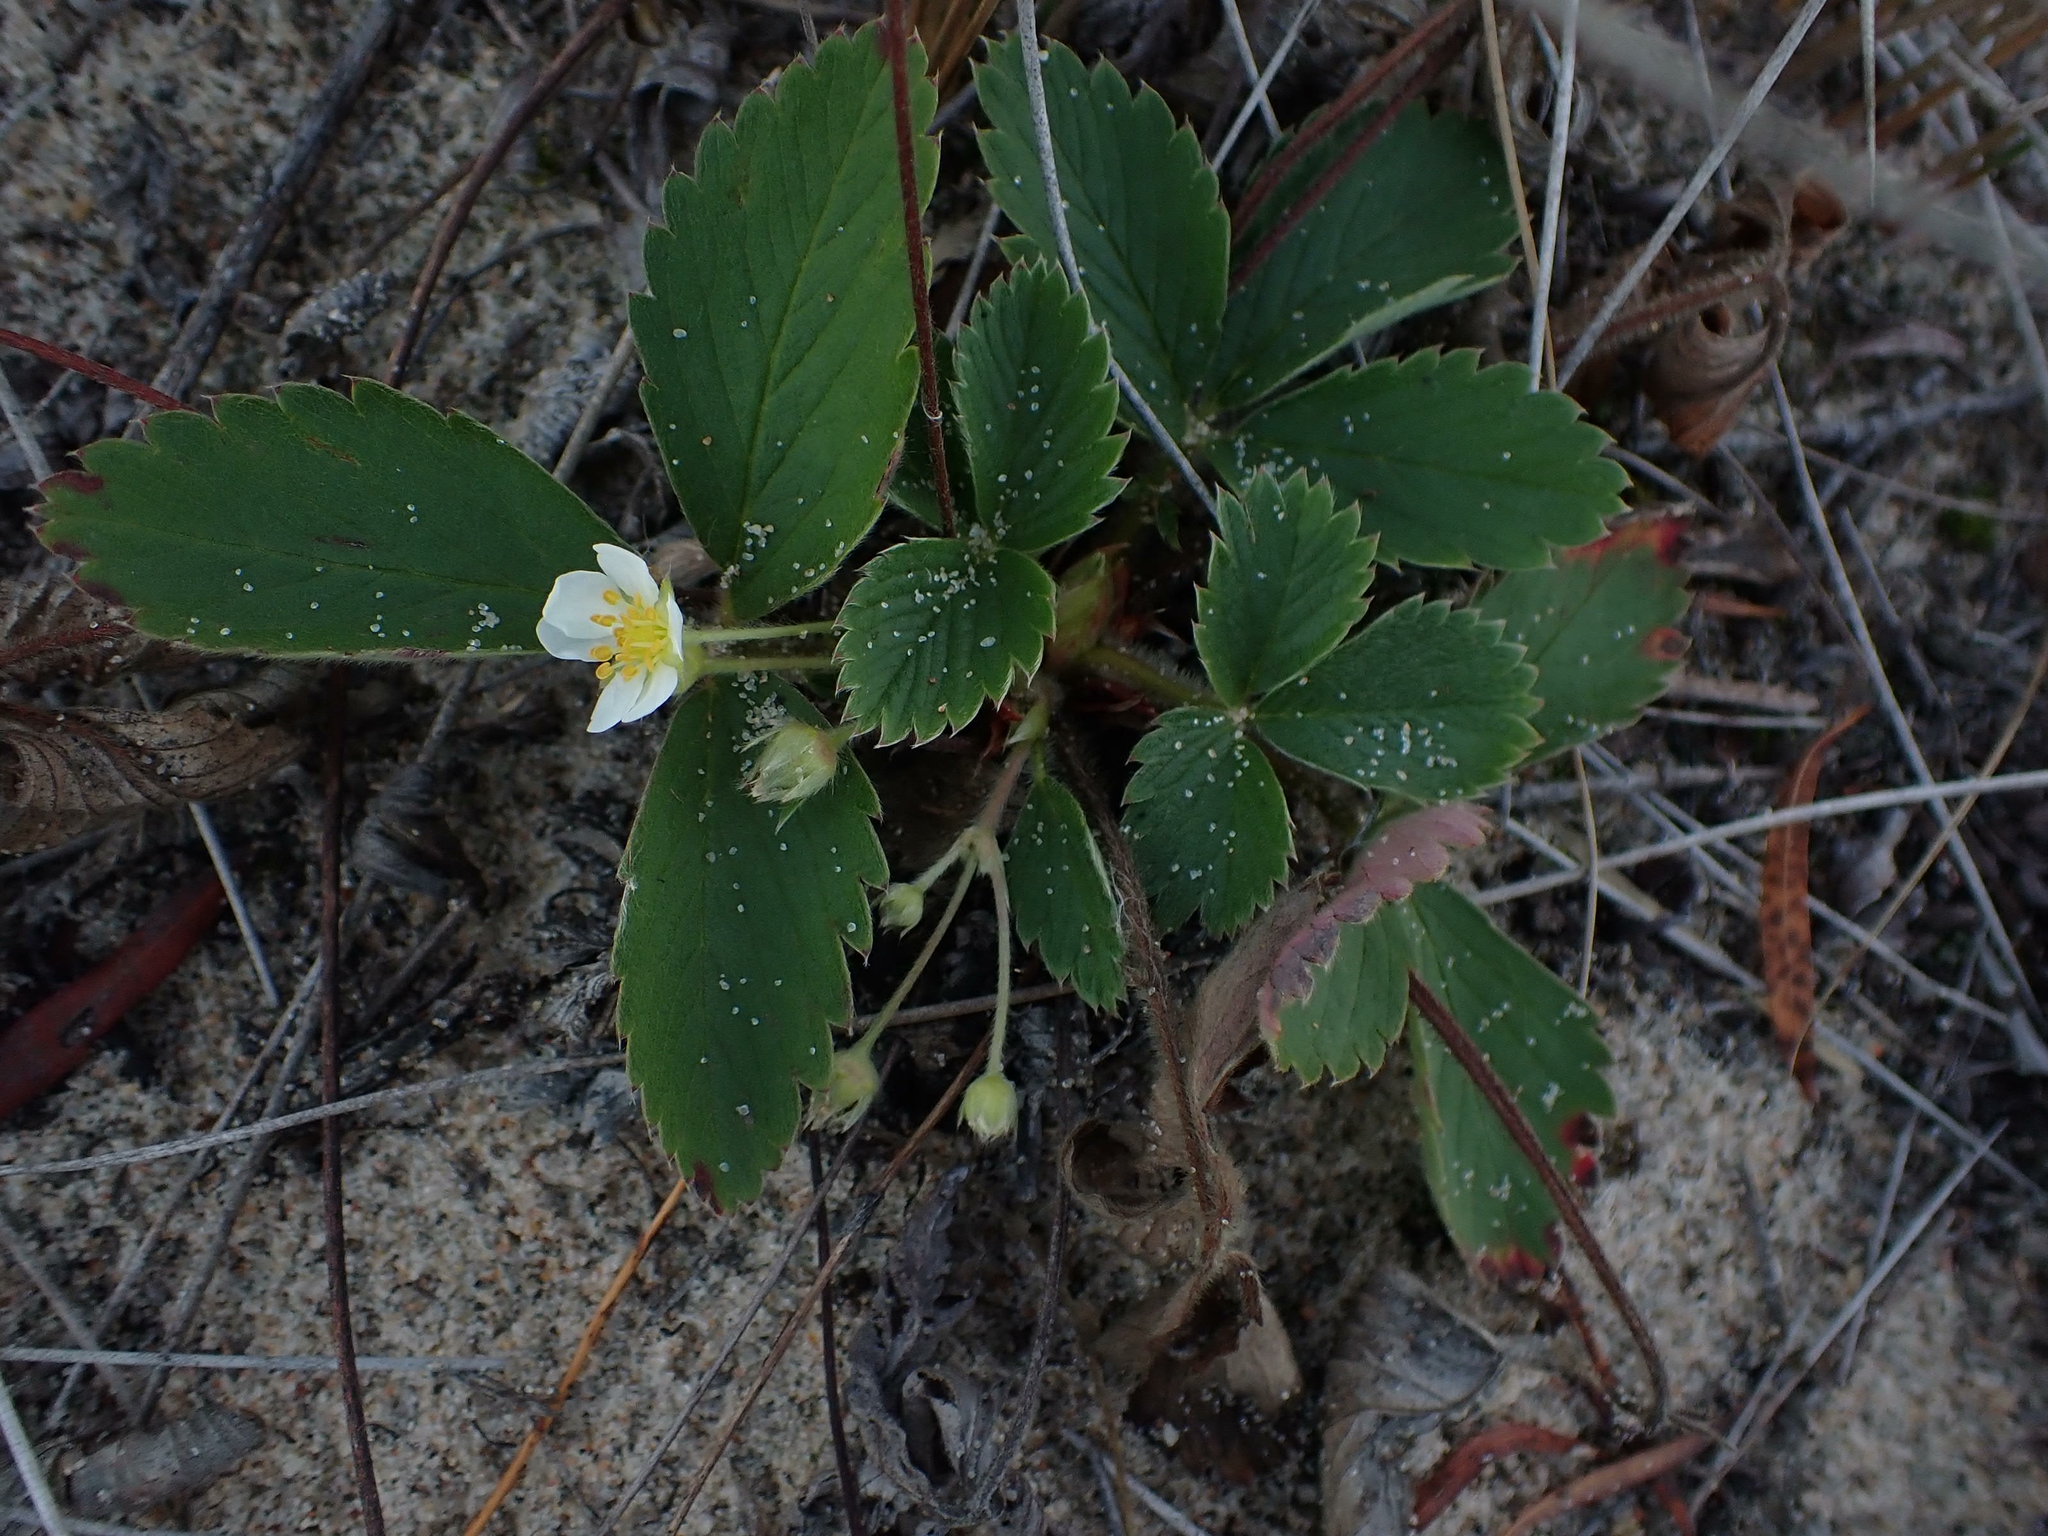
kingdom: Plantae
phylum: Tracheophyta
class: Magnoliopsida
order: Rosales
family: Rosaceae
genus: Fragaria
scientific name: Fragaria virginiana
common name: Thickleaved wild strawberry
